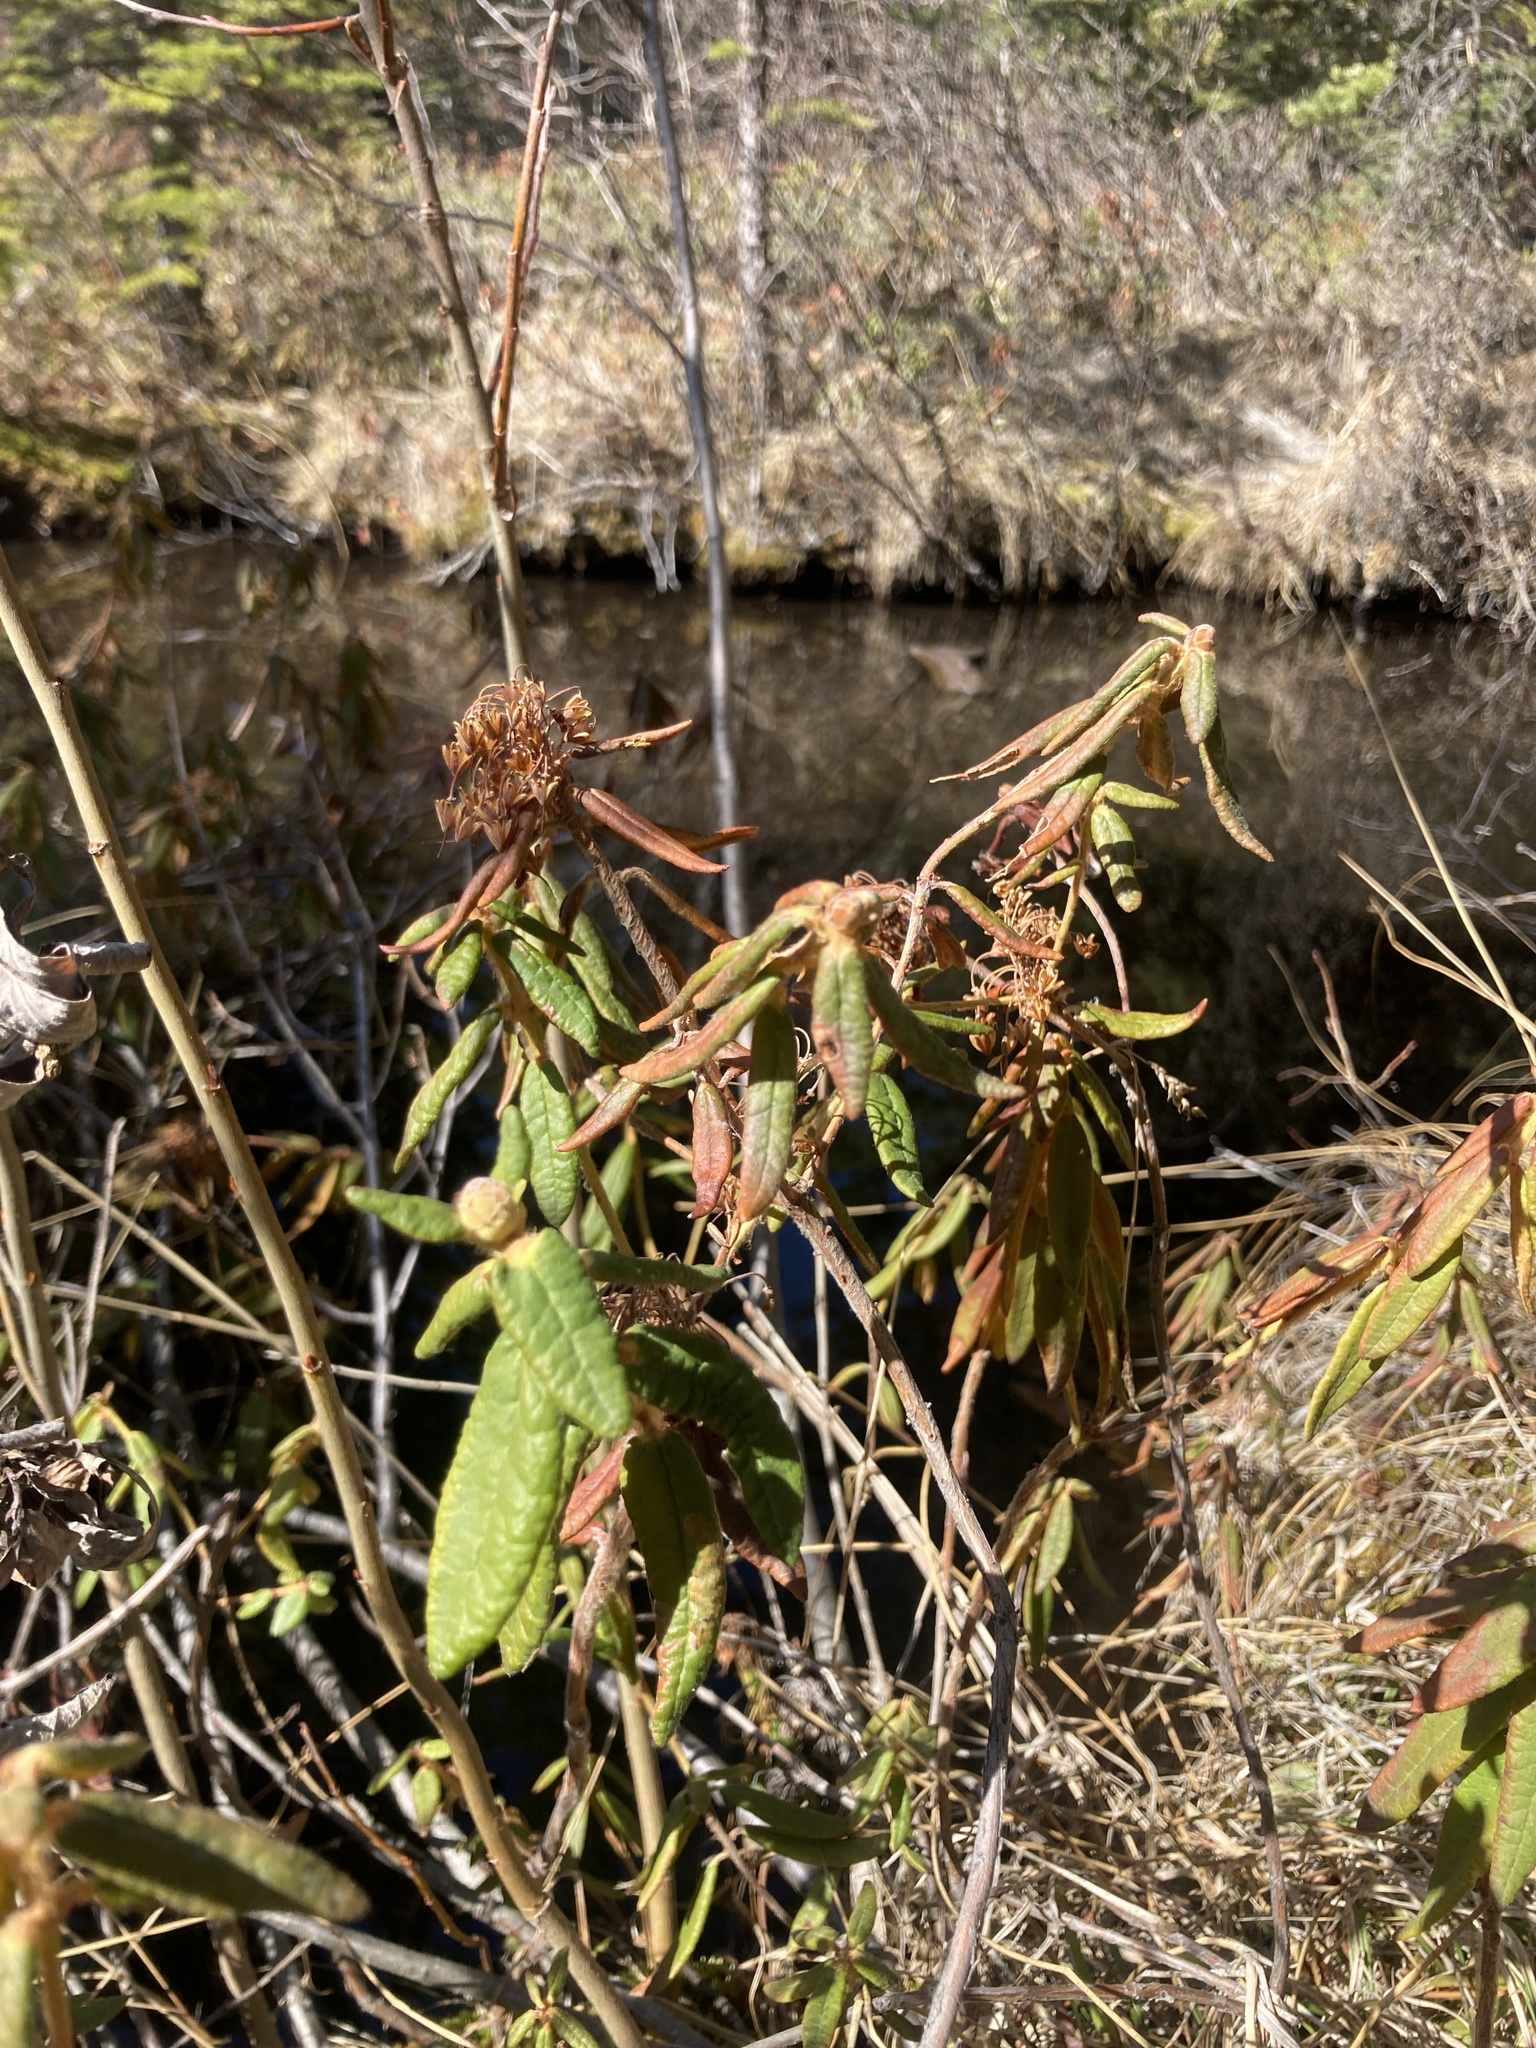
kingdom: Plantae
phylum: Tracheophyta
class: Magnoliopsida
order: Ericales
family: Ericaceae
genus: Rhododendron
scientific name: Rhododendron groenlandicum
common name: Bog labrador tea
